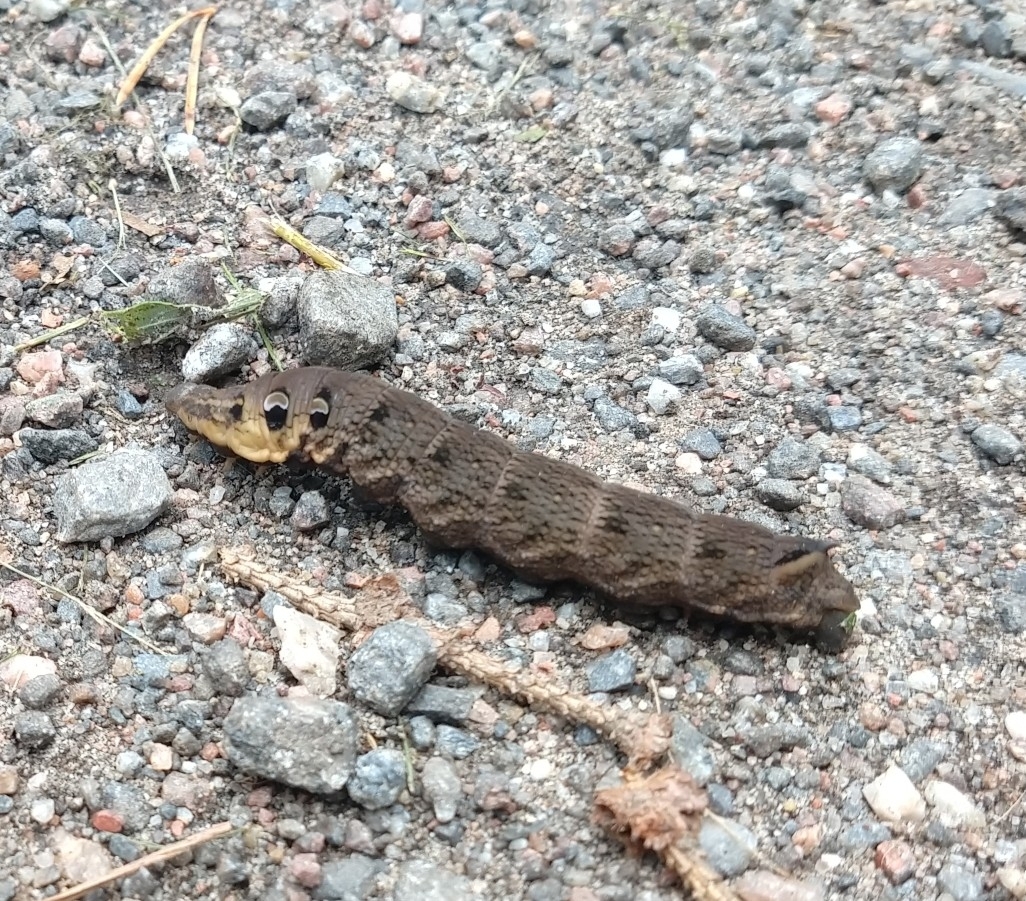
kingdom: Animalia
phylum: Arthropoda
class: Insecta
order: Lepidoptera
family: Sphingidae
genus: Deilephila
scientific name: Deilephila elpenor
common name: Elephant hawk-moth
